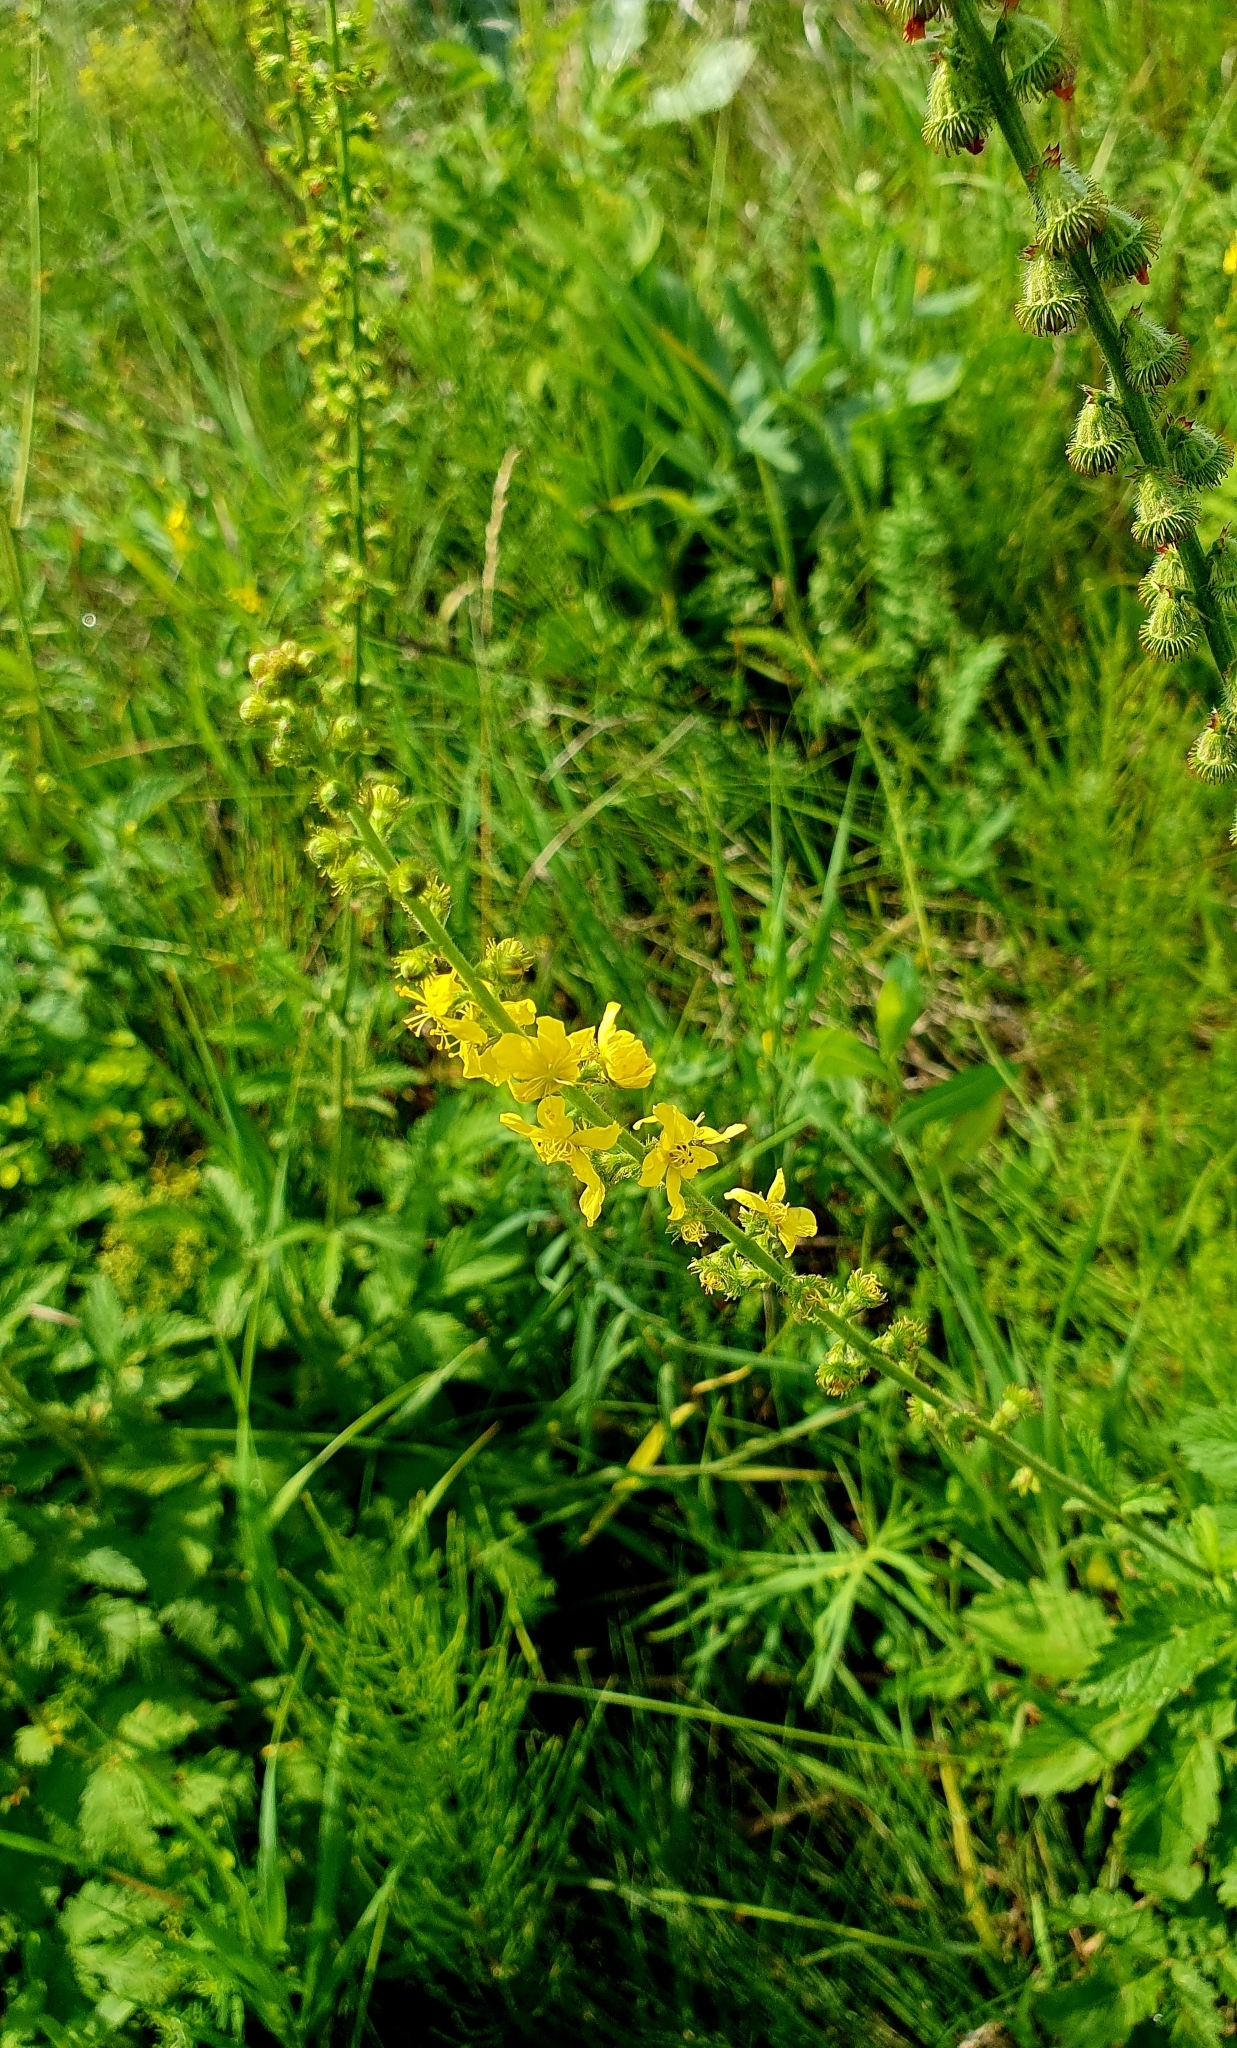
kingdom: Plantae
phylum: Tracheophyta
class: Magnoliopsida
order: Rosales
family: Rosaceae
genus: Agrimonia
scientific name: Agrimonia eupatoria
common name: Agrimony
